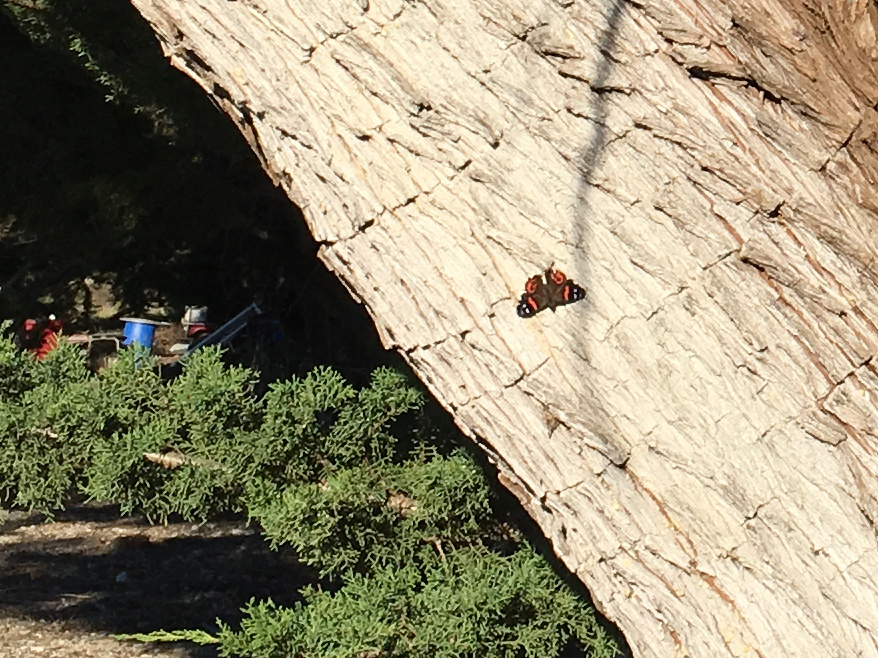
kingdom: Animalia
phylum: Arthropoda
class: Insecta
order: Lepidoptera
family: Nymphalidae
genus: Vanessa
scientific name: Vanessa gonerilla
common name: New zealand red admiral
